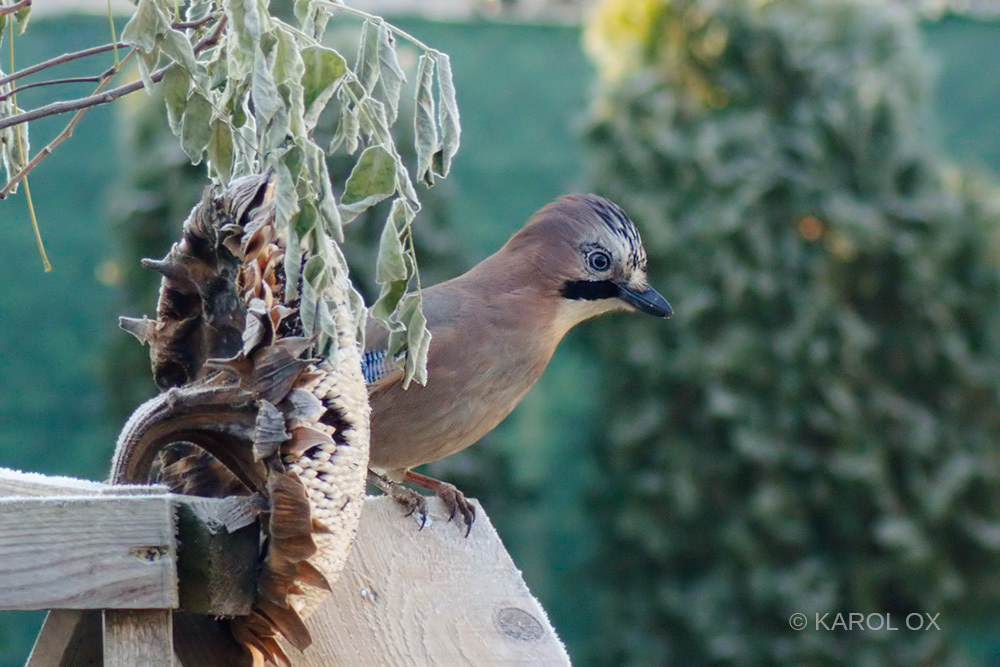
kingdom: Animalia
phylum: Chordata
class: Aves
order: Passeriformes
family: Corvidae
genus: Garrulus
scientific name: Garrulus glandarius
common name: Eurasian jay
